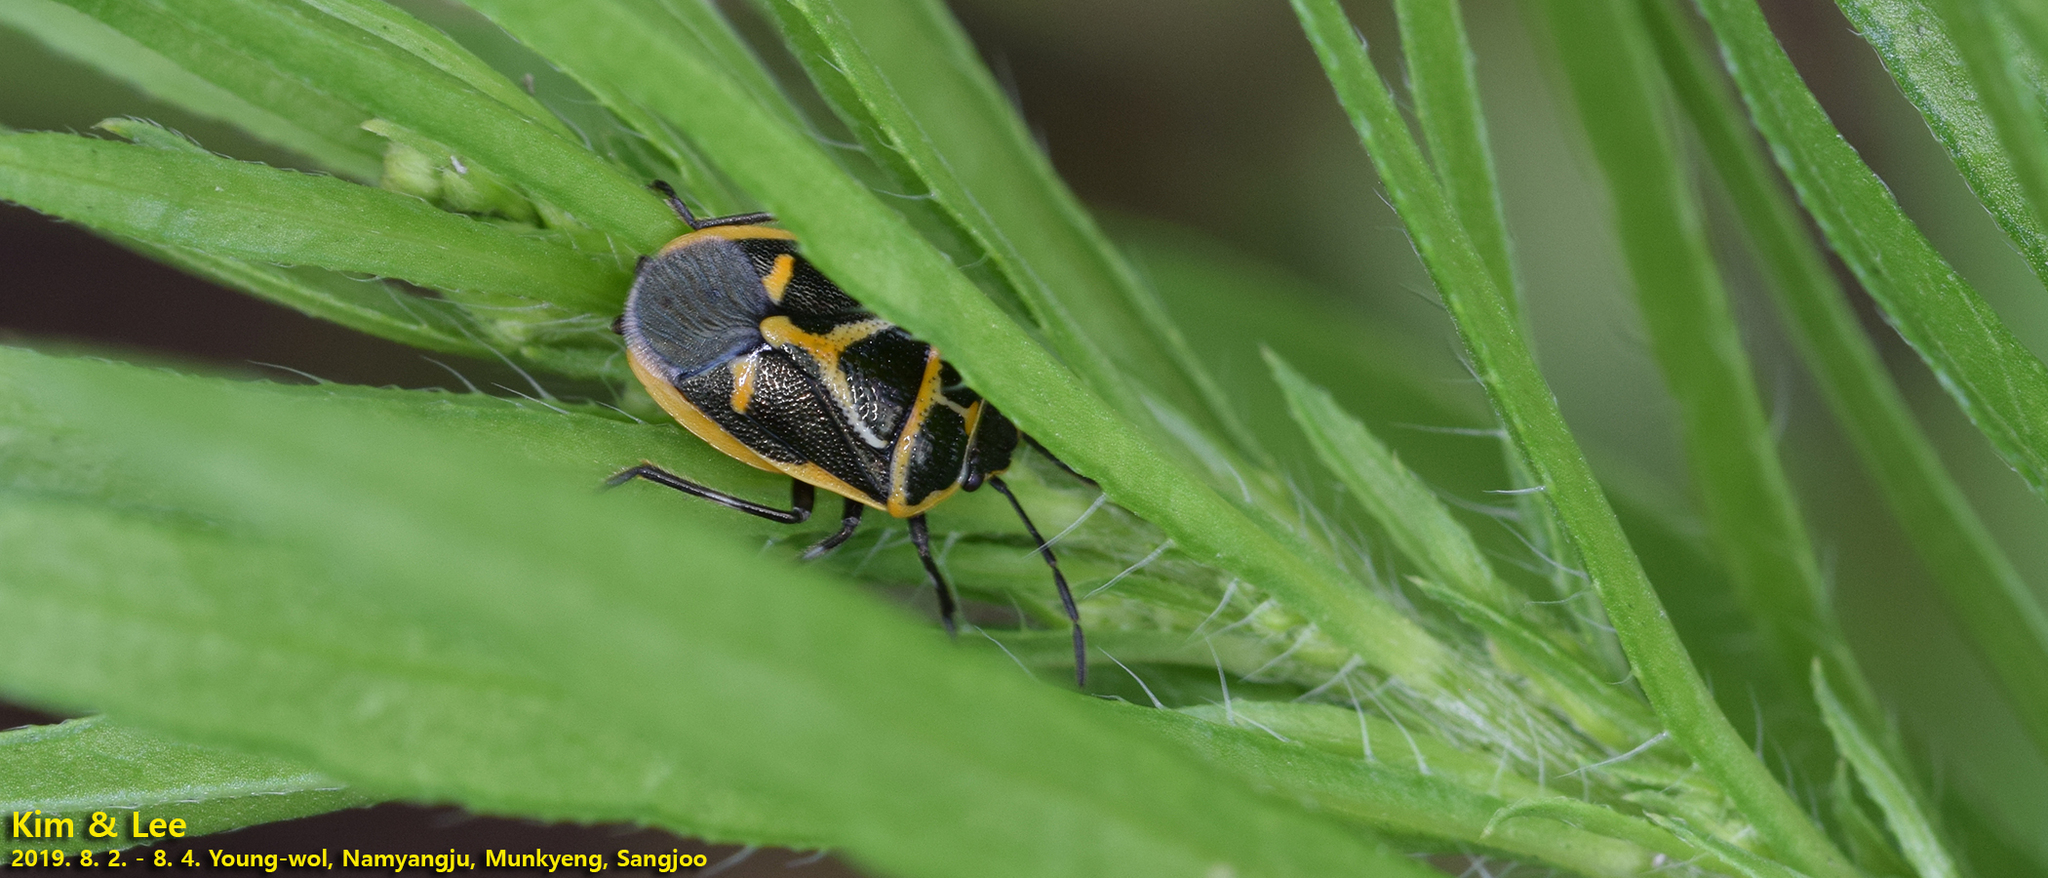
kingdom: Animalia
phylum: Arthropoda
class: Insecta
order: Hemiptera
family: Pentatomidae
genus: Eurydema
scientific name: Eurydema gebleri
